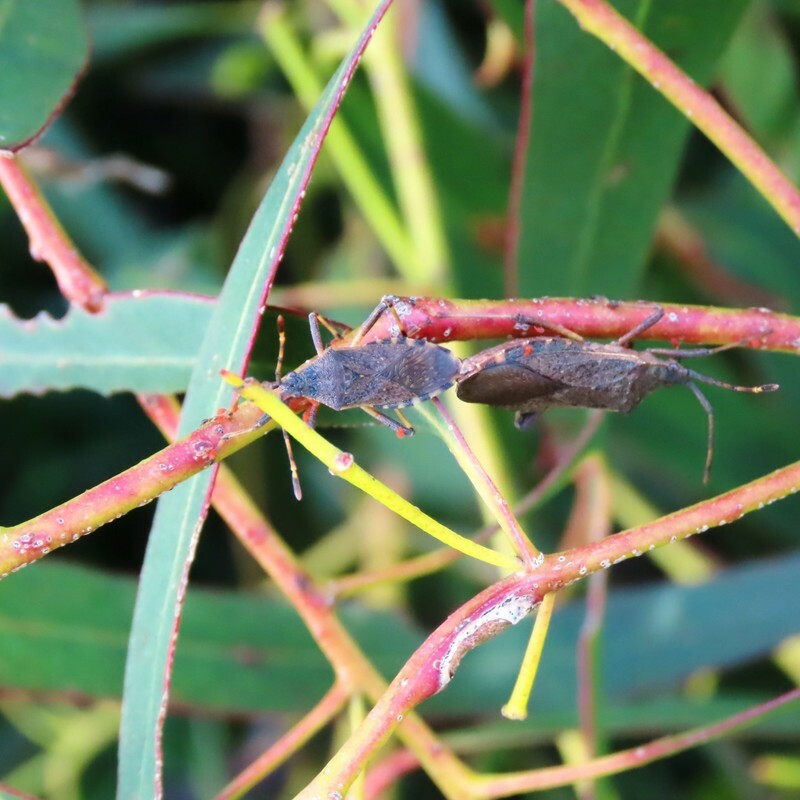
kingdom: Animalia
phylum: Arthropoda
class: Insecta
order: Hemiptera
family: Coreidae
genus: Gelonus
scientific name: Gelonus tasmanicus
